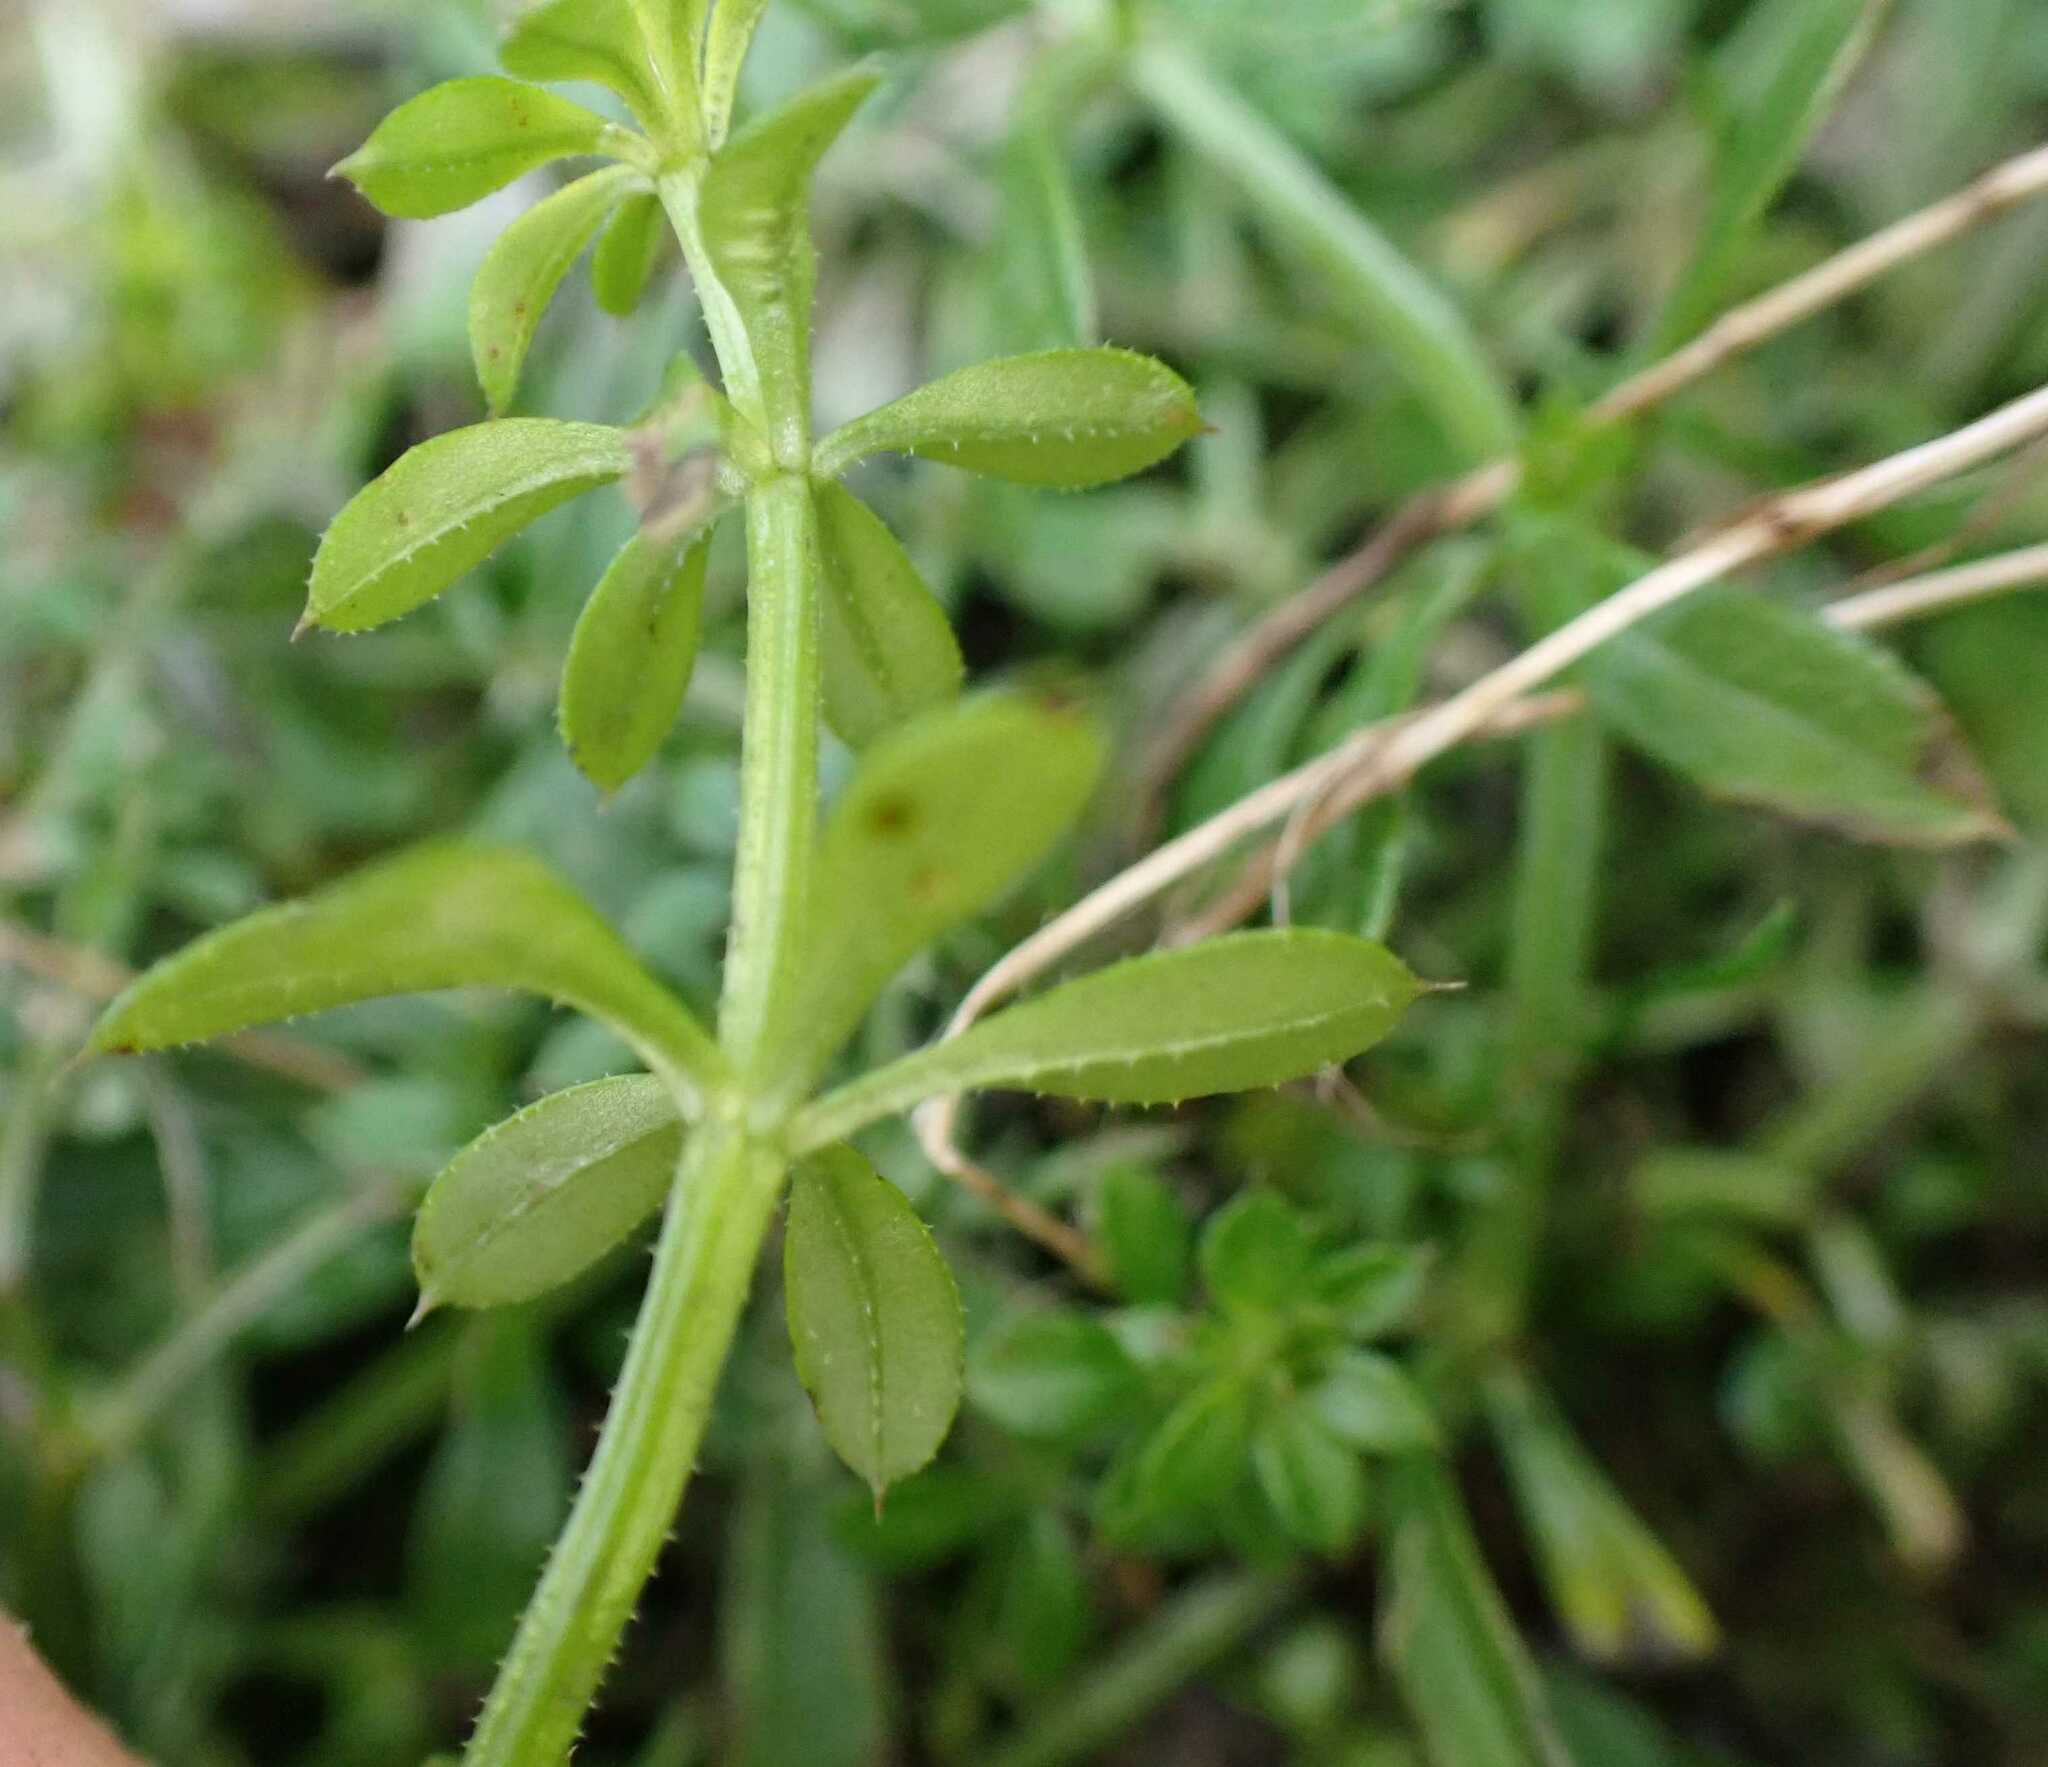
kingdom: Plantae
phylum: Tracheophyta
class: Magnoliopsida
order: Gentianales
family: Rubiaceae
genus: Galium
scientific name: Galium aparine
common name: Cleavers
